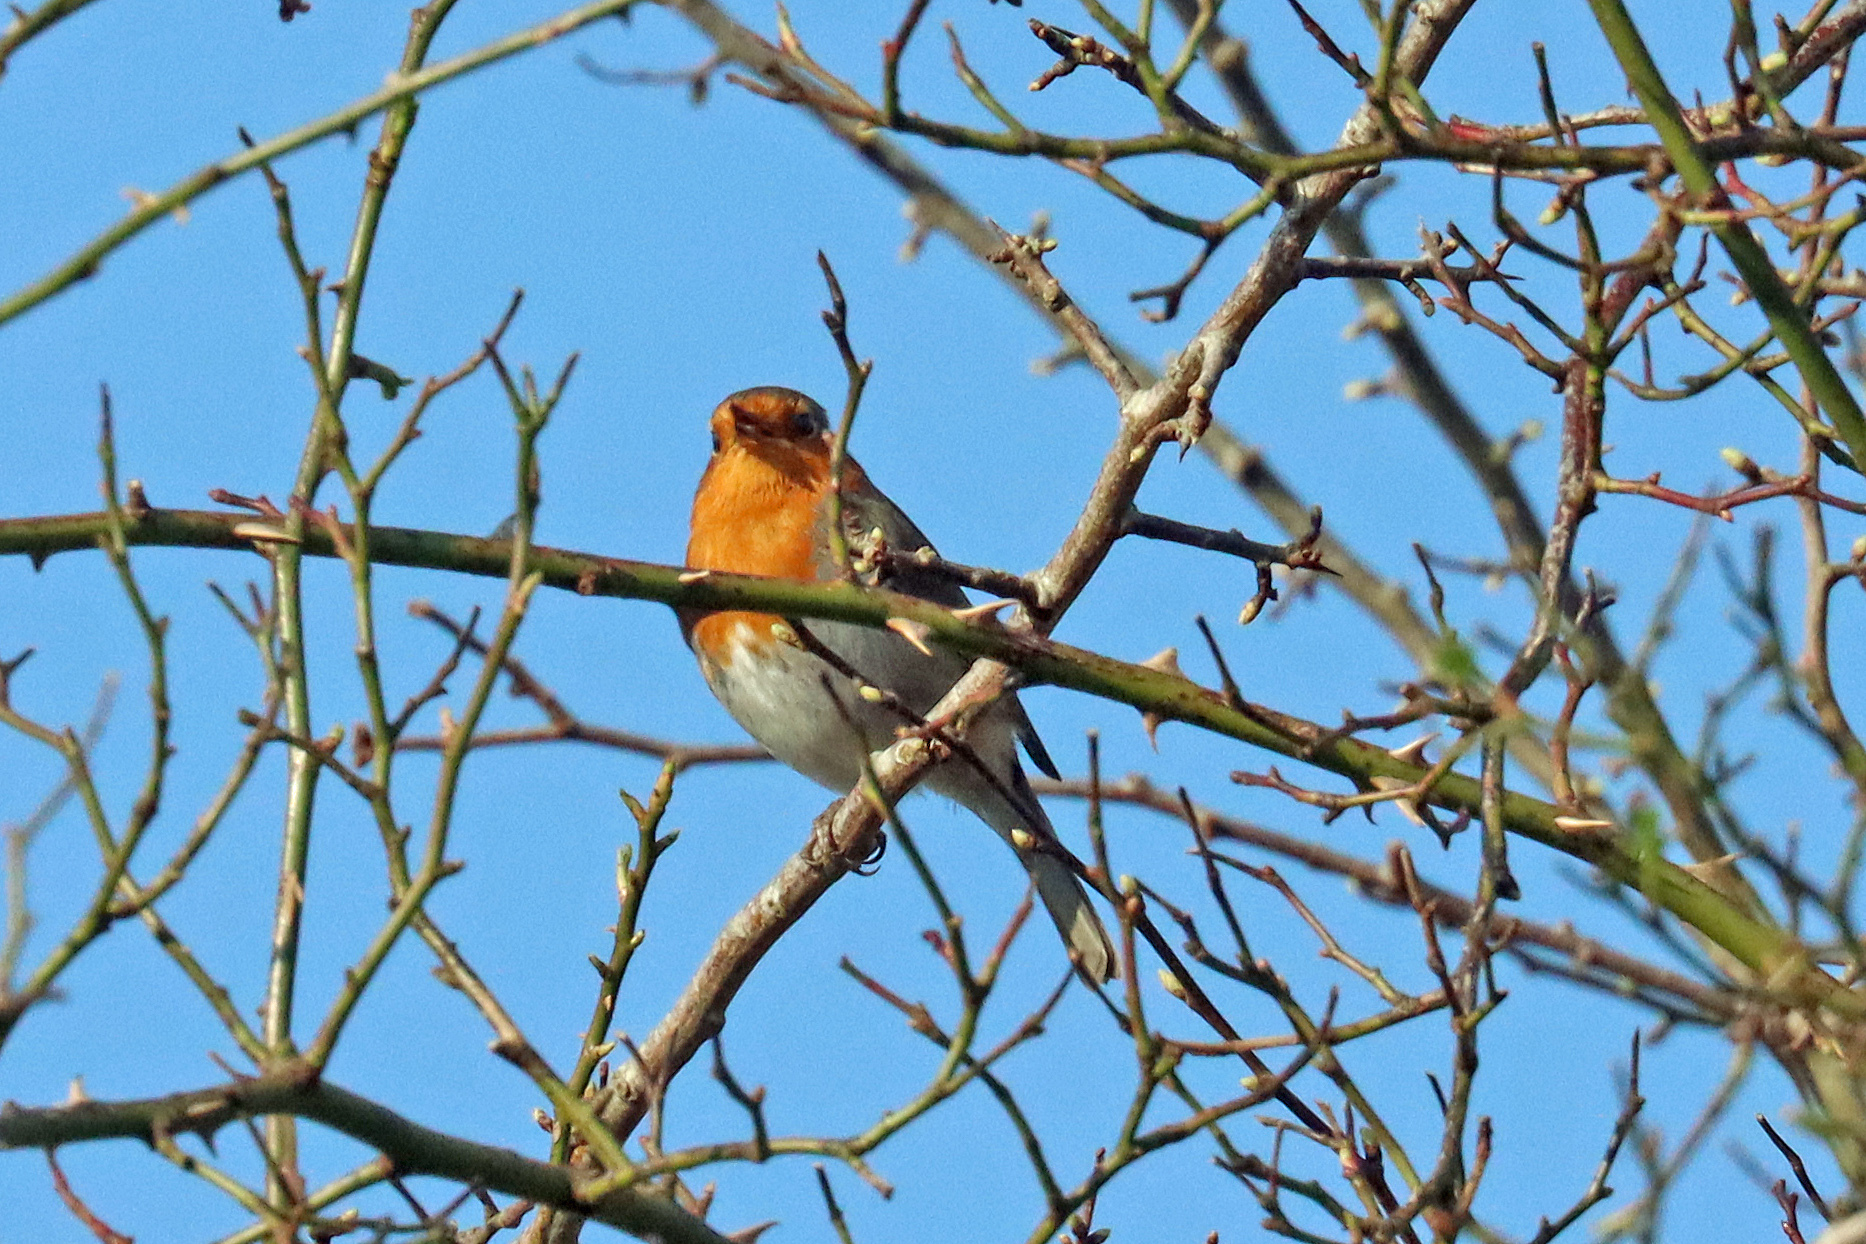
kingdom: Animalia
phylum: Chordata
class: Aves
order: Passeriformes
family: Muscicapidae
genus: Erithacus
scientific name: Erithacus rubecula
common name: European robin
